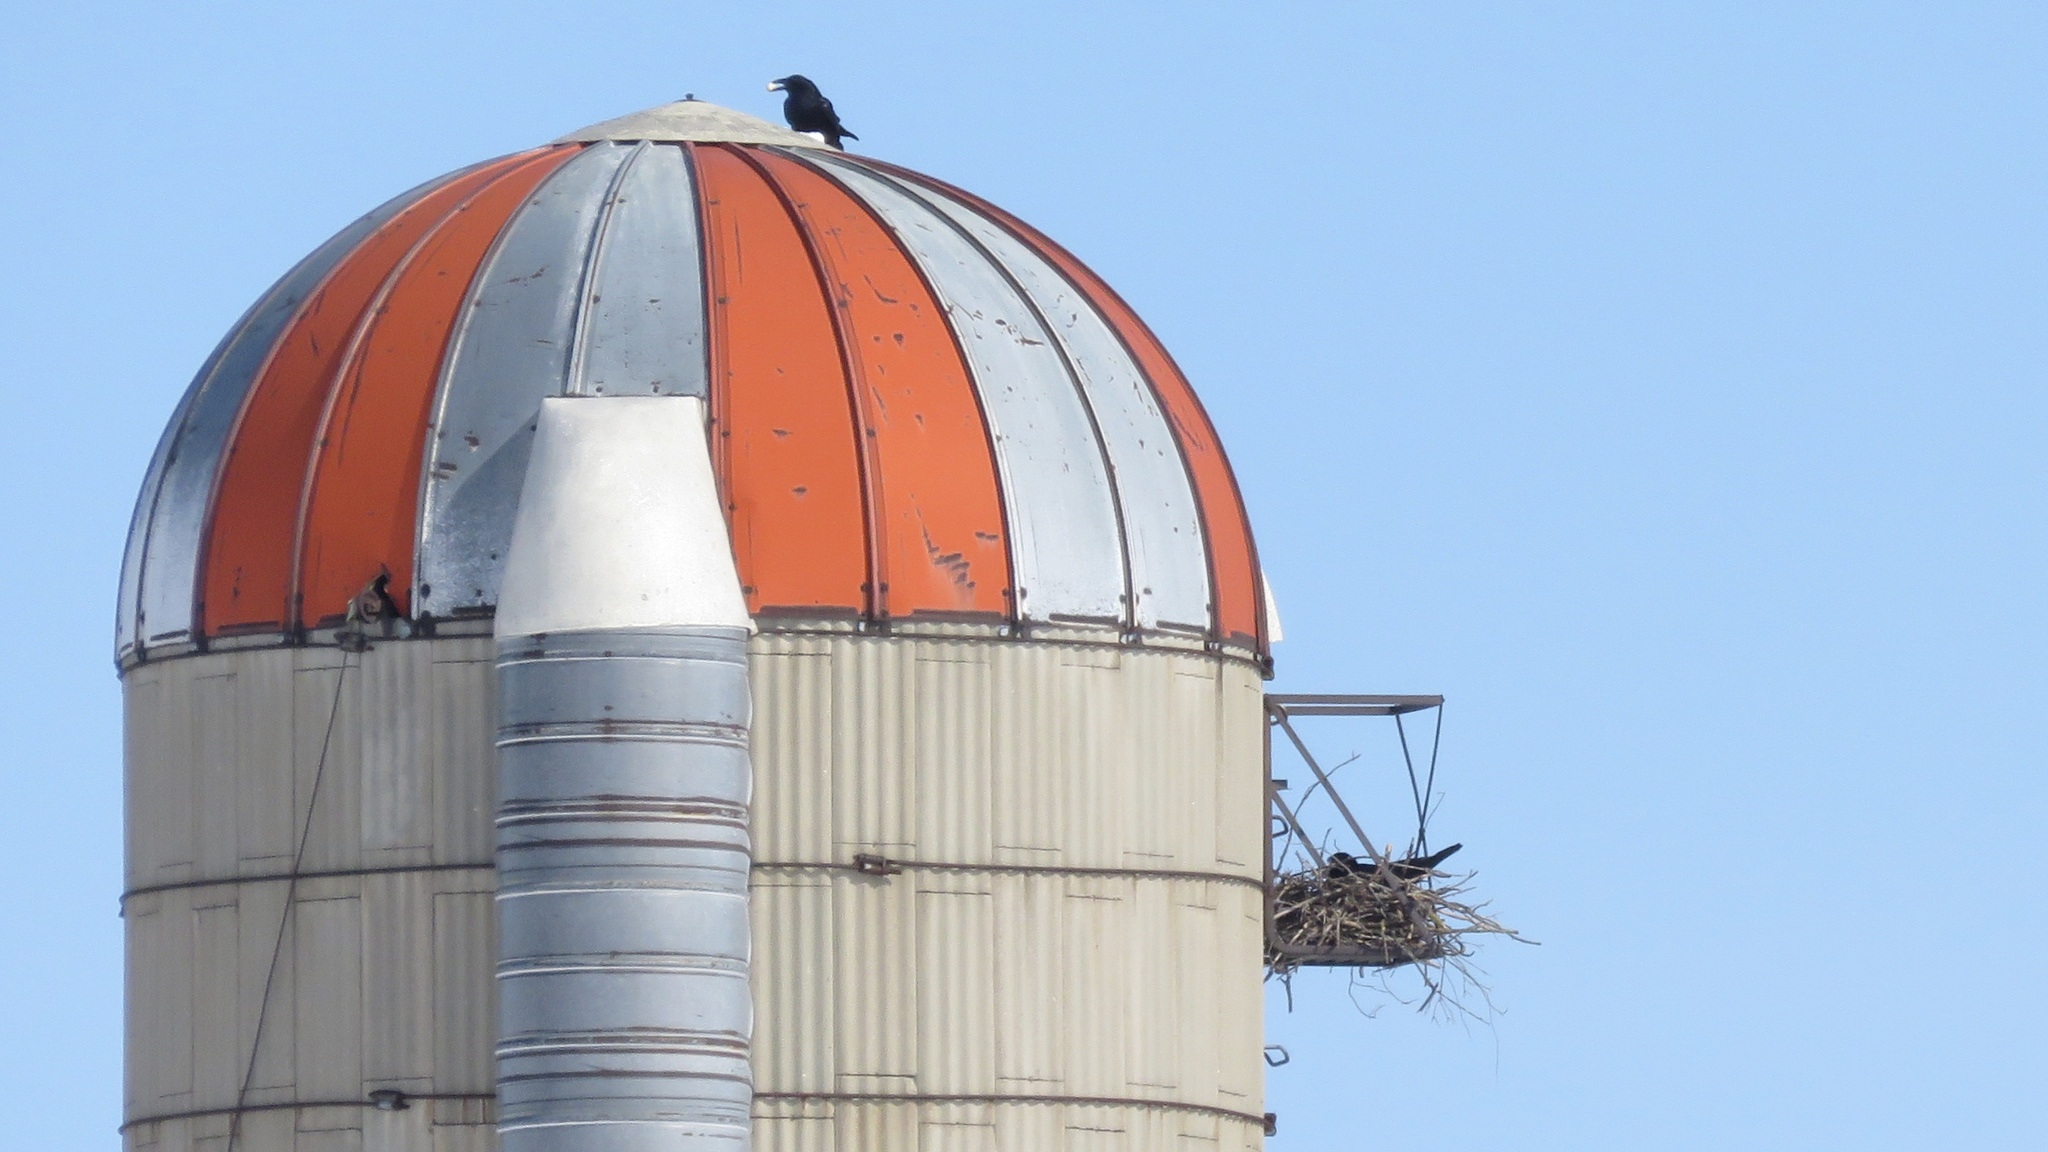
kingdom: Animalia
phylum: Chordata
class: Aves
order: Passeriformes
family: Corvidae
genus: Corvus
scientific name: Corvus corax
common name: Common raven
